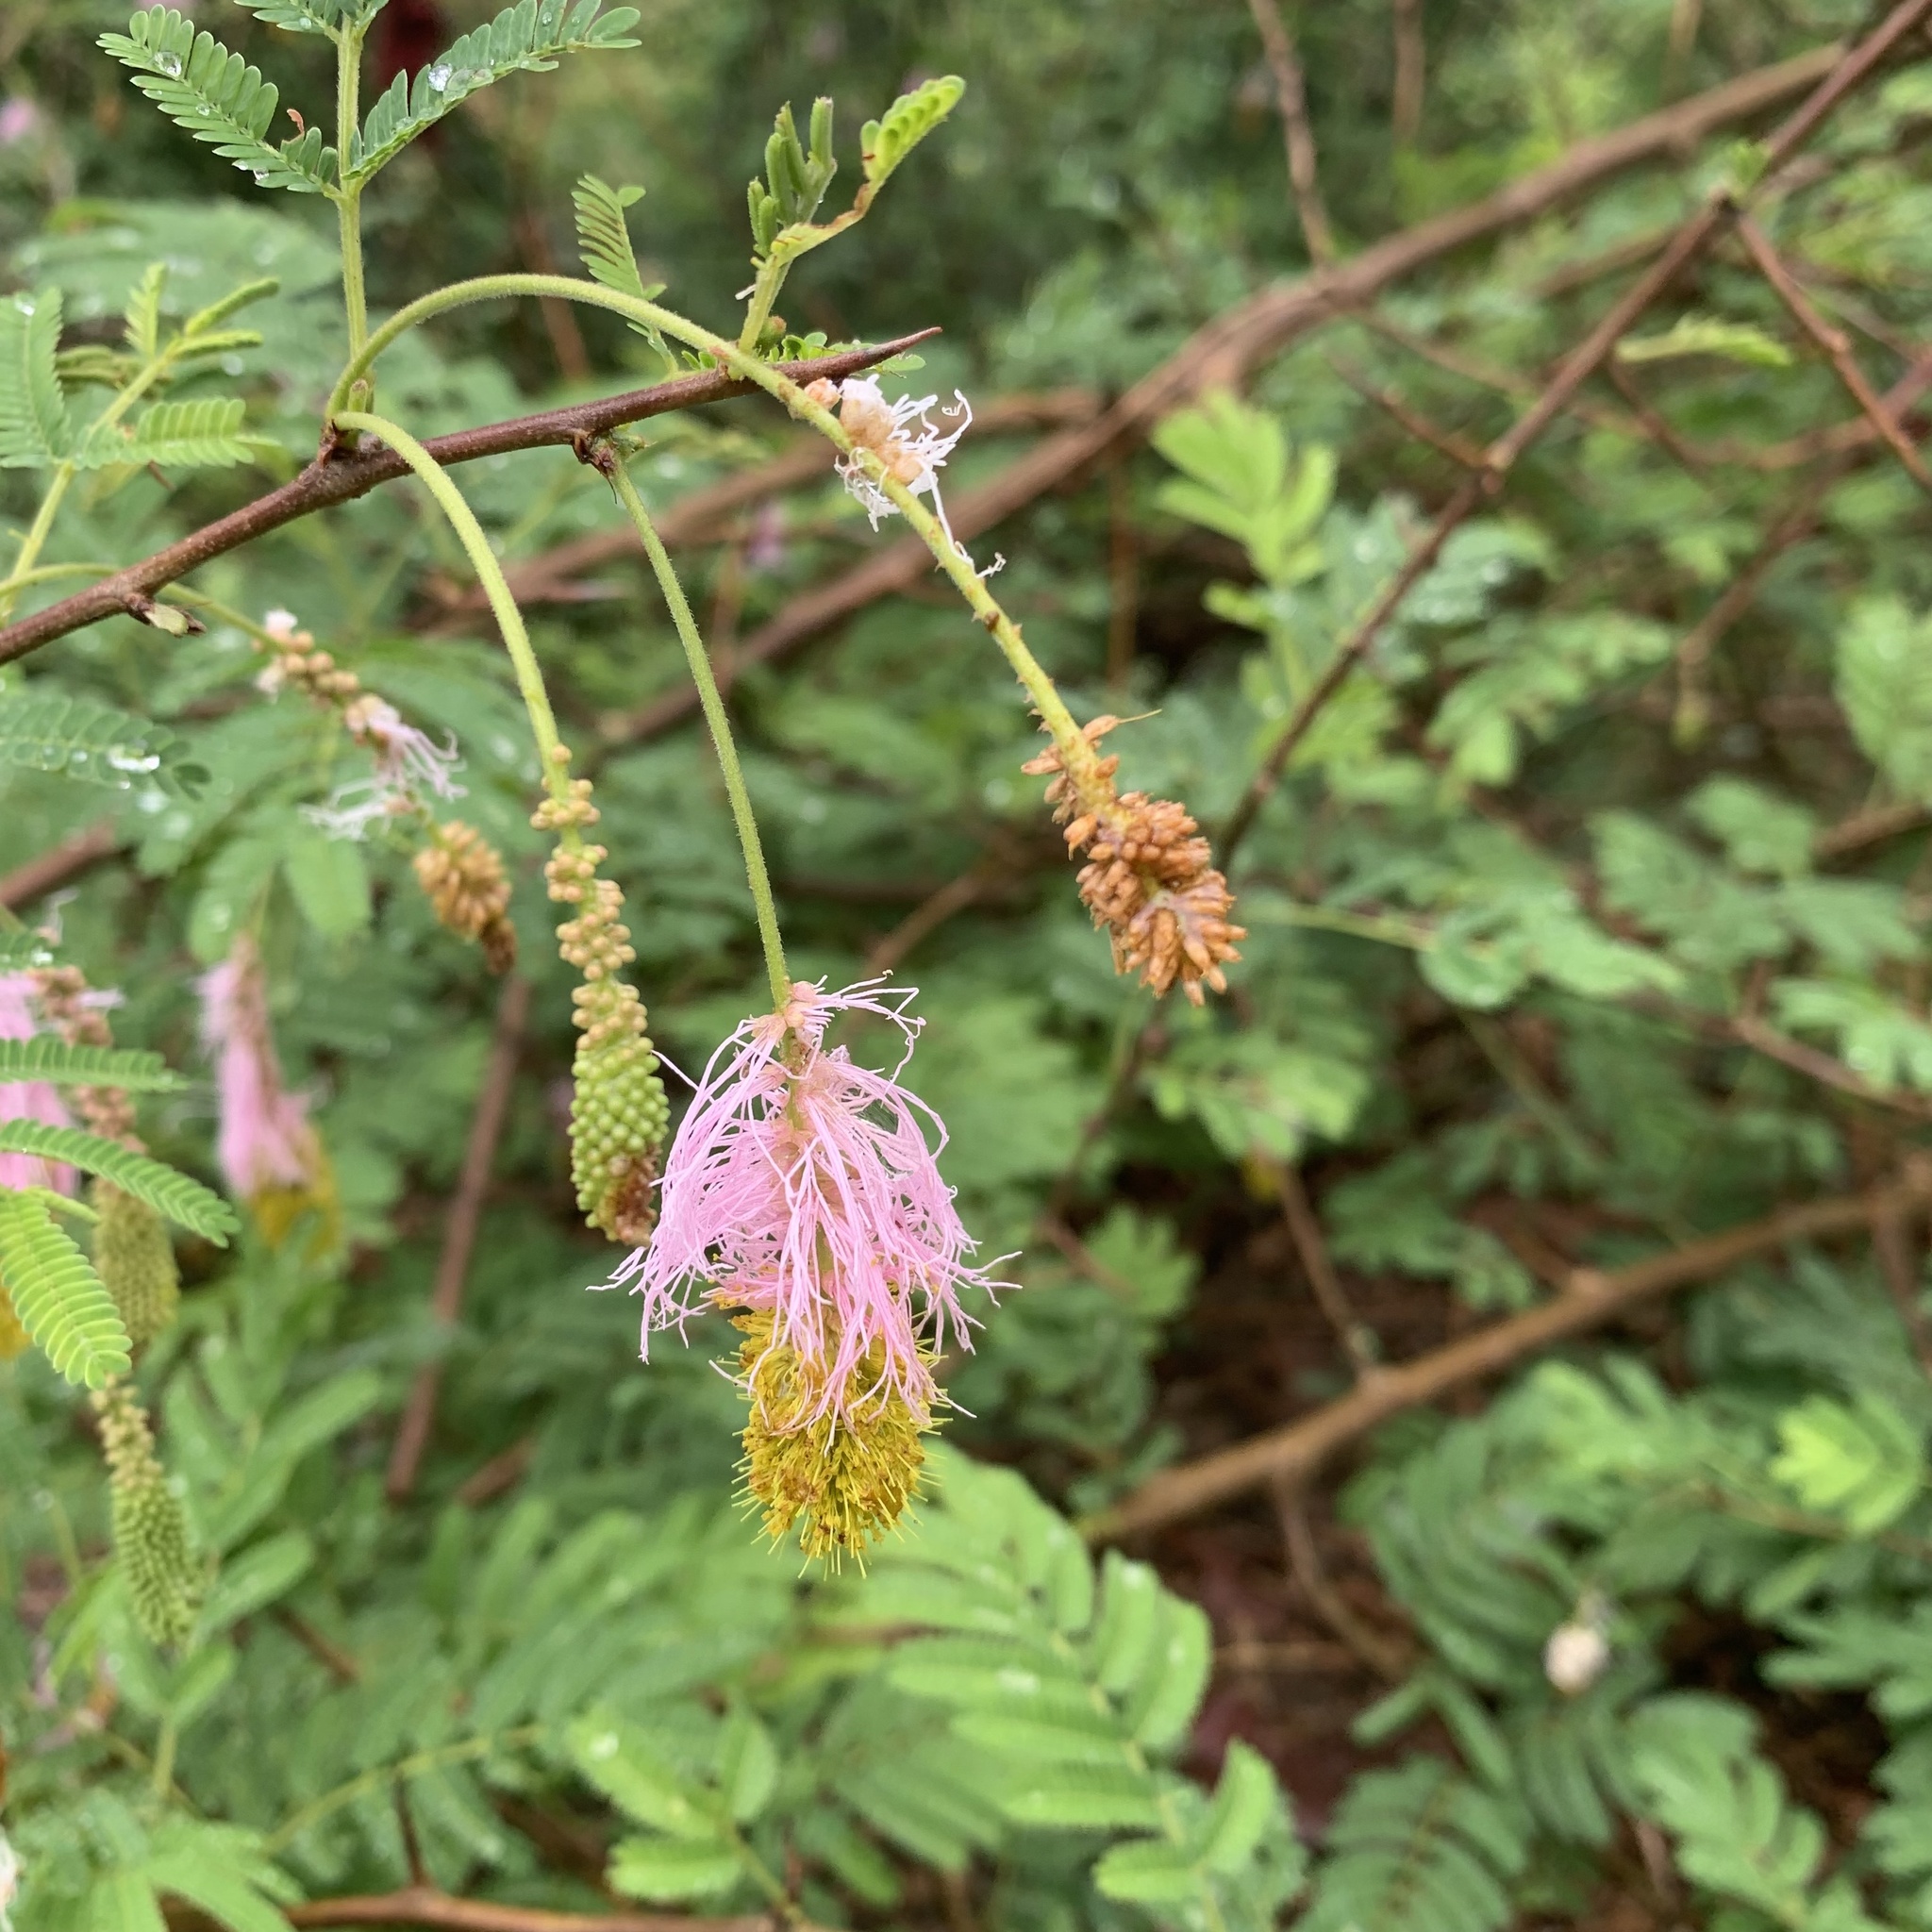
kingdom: Plantae
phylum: Tracheophyta
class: Magnoliopsida
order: Fabales
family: Fabaceae
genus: Dichrostachys
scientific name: Dichrostachys cinerea
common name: Sicklebush
